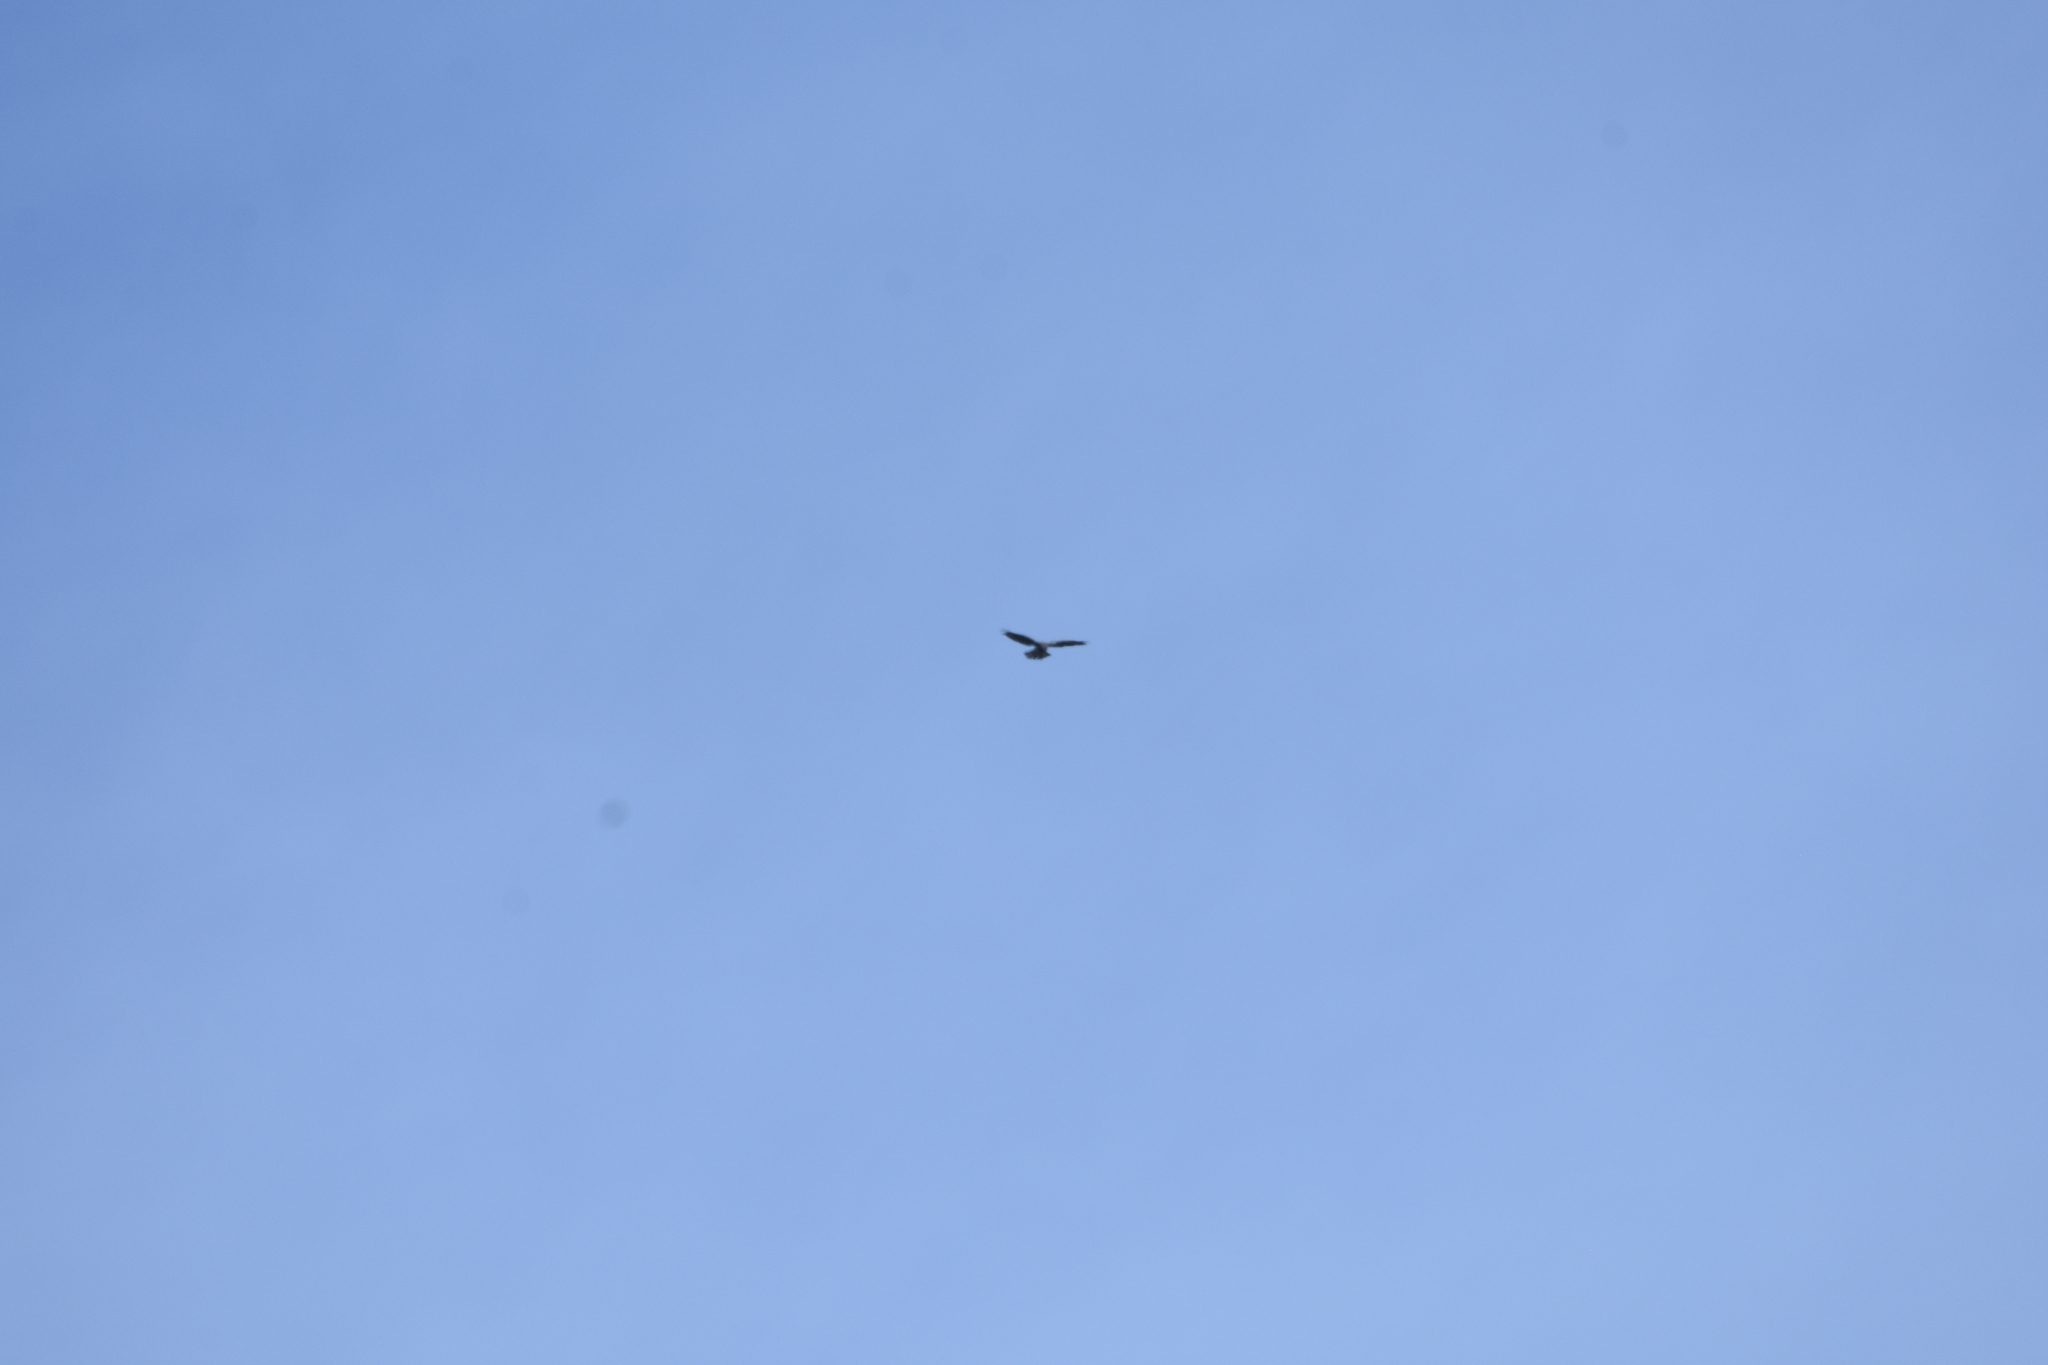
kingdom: Animalia
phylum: Chordata
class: Aves
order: Accipitriformes
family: Accipitridae
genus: Circaetus
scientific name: Circaetus gallicus
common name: Short-toed snake eagle
